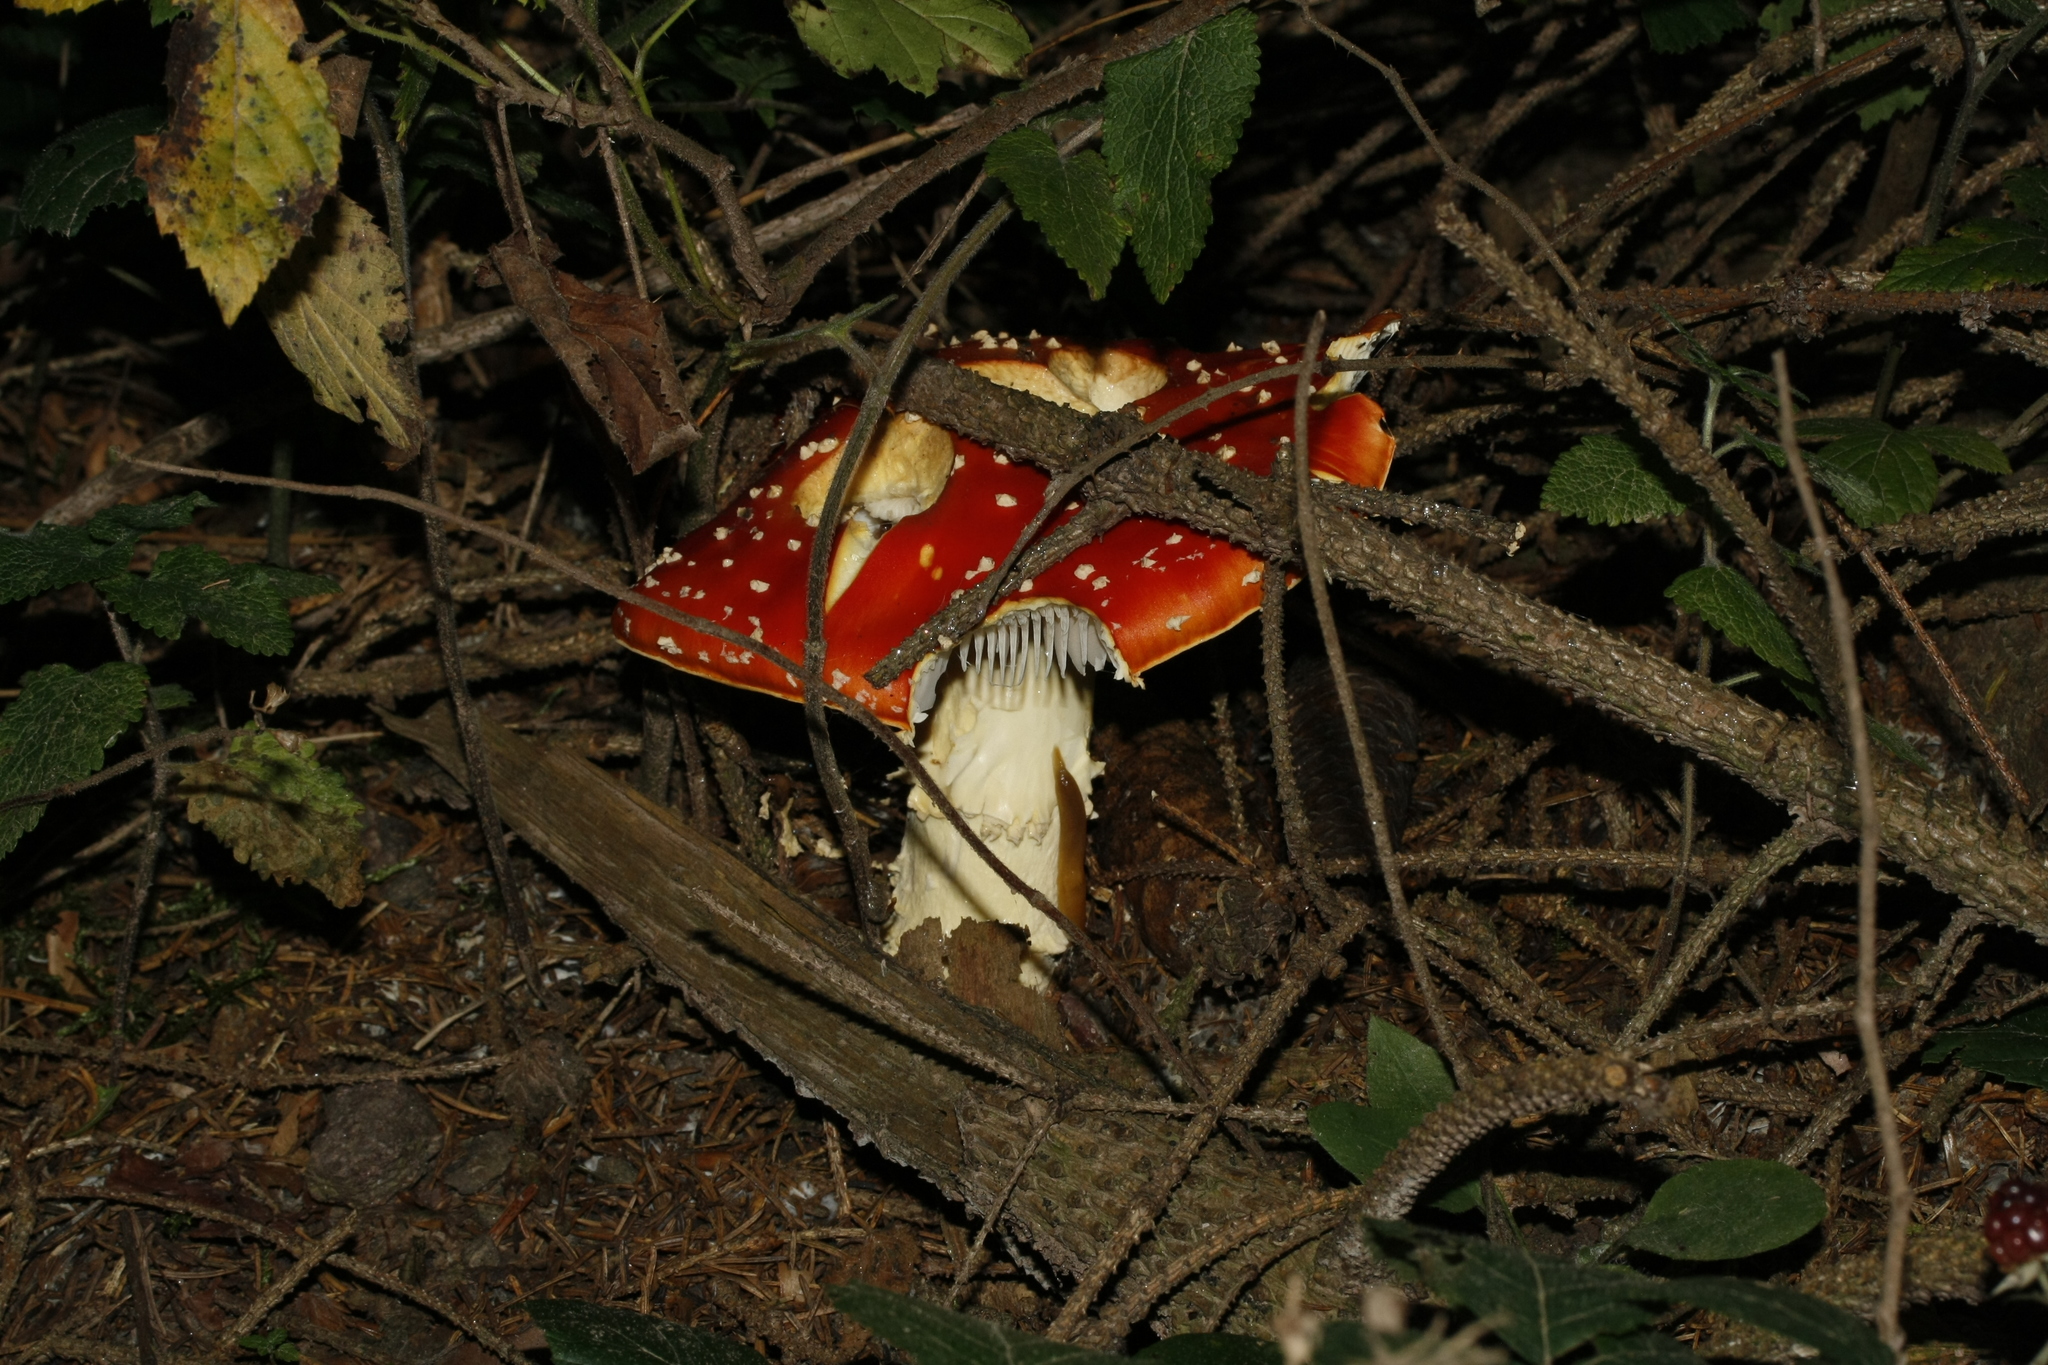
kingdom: Fungi
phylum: Basidiomycota
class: Agaricomycetes
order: Agaricales
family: Amanitaceae
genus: Amanita
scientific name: Amanita muscaria
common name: Fly agaric
